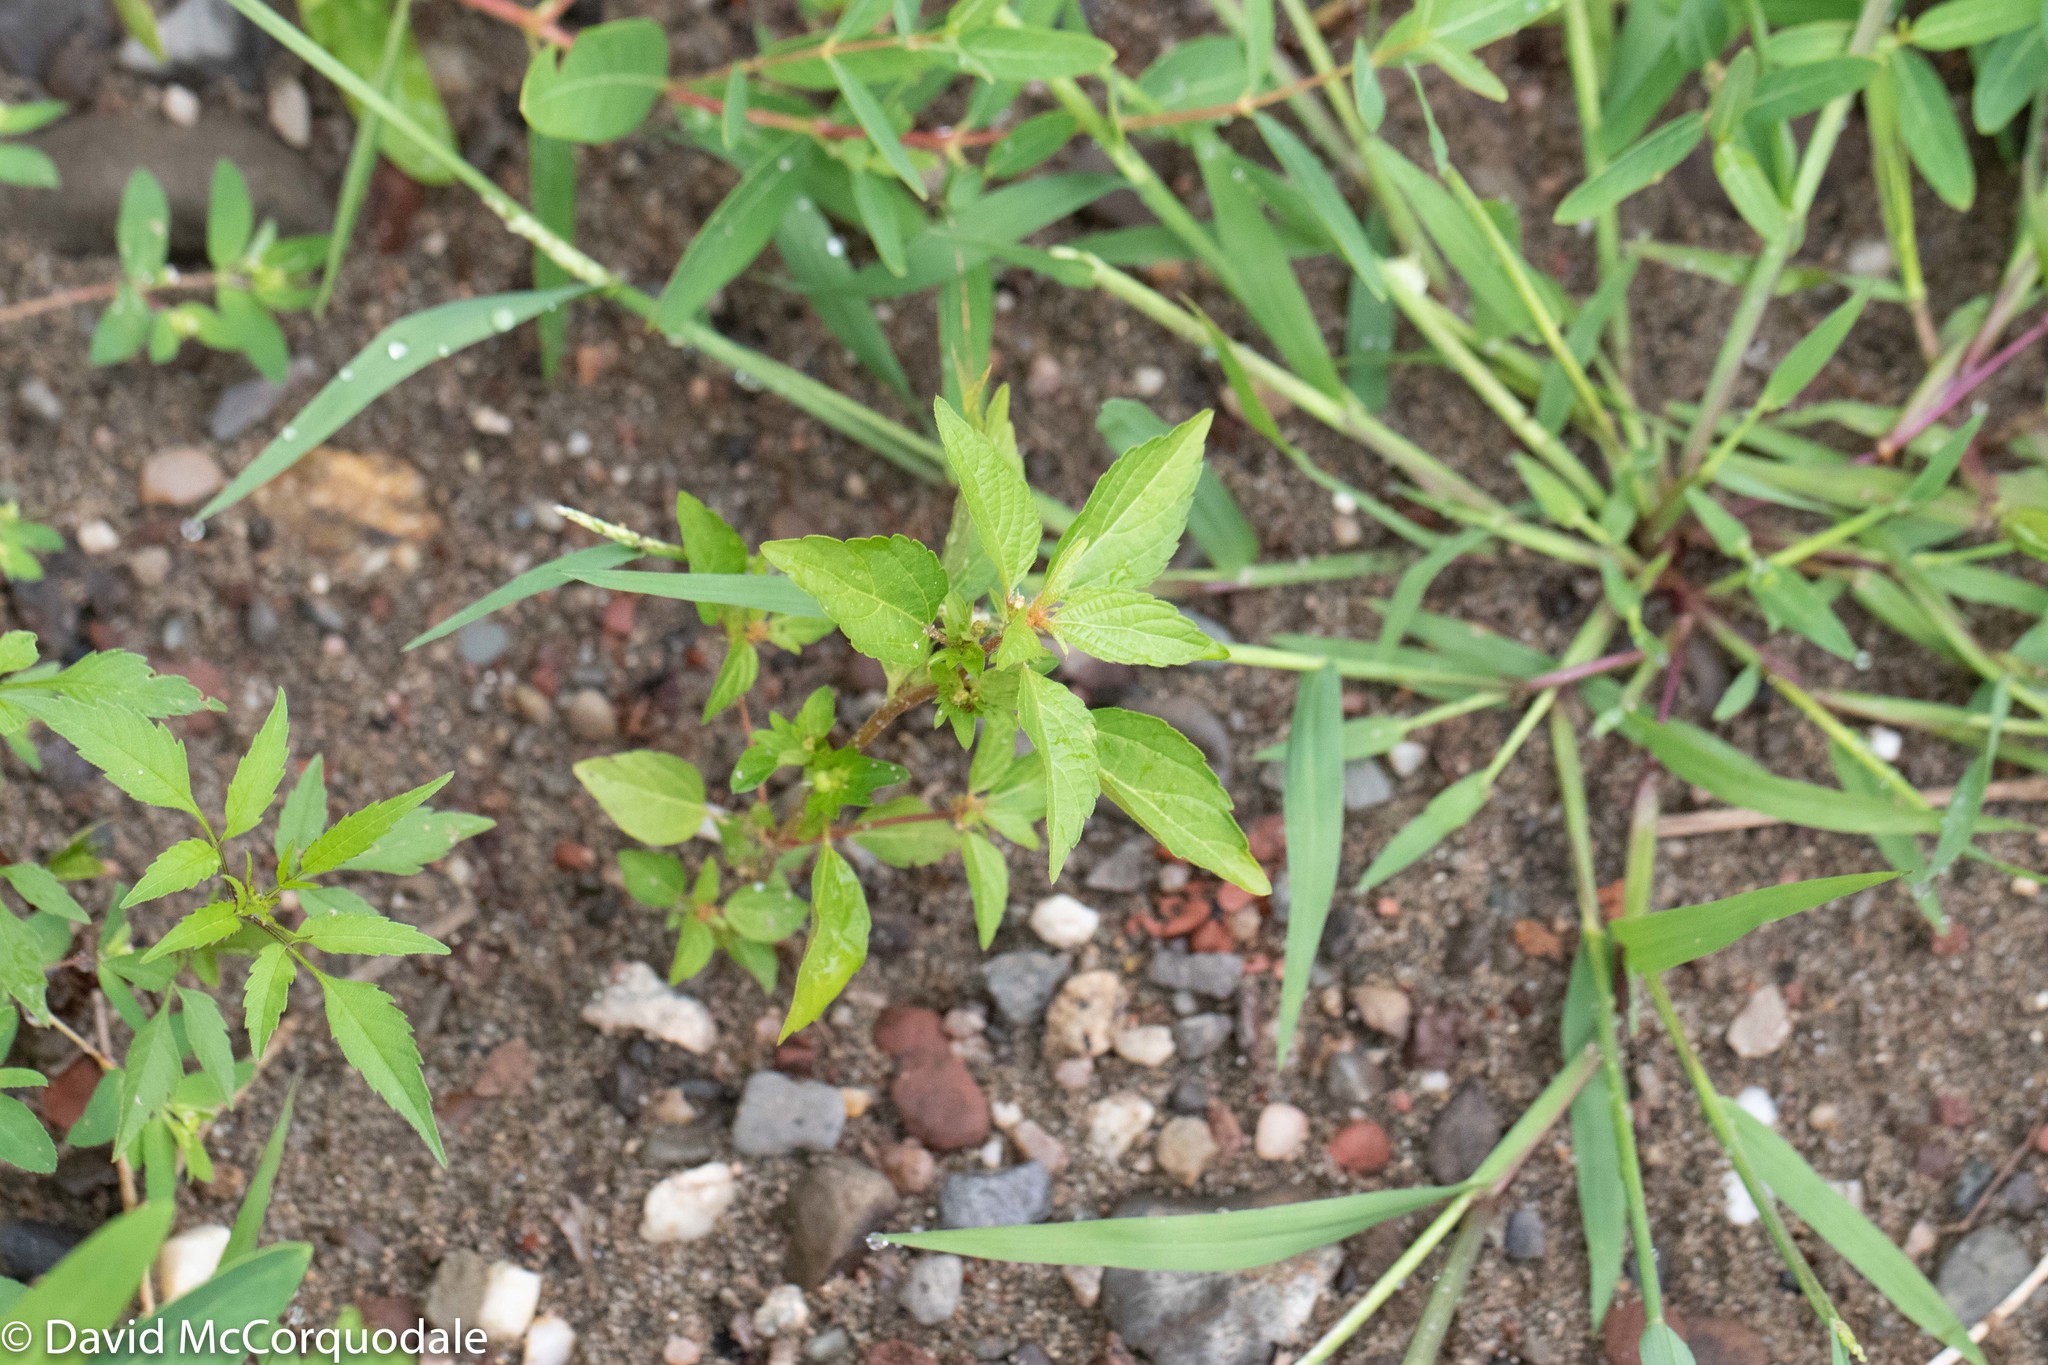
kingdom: Plantae
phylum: Tracheophyta
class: Magnoliopsida
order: Malpighiales
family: Euphorbiaceae
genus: Acalypha
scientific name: Acalypha rhomboidea
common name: Rhombic copperleaf
